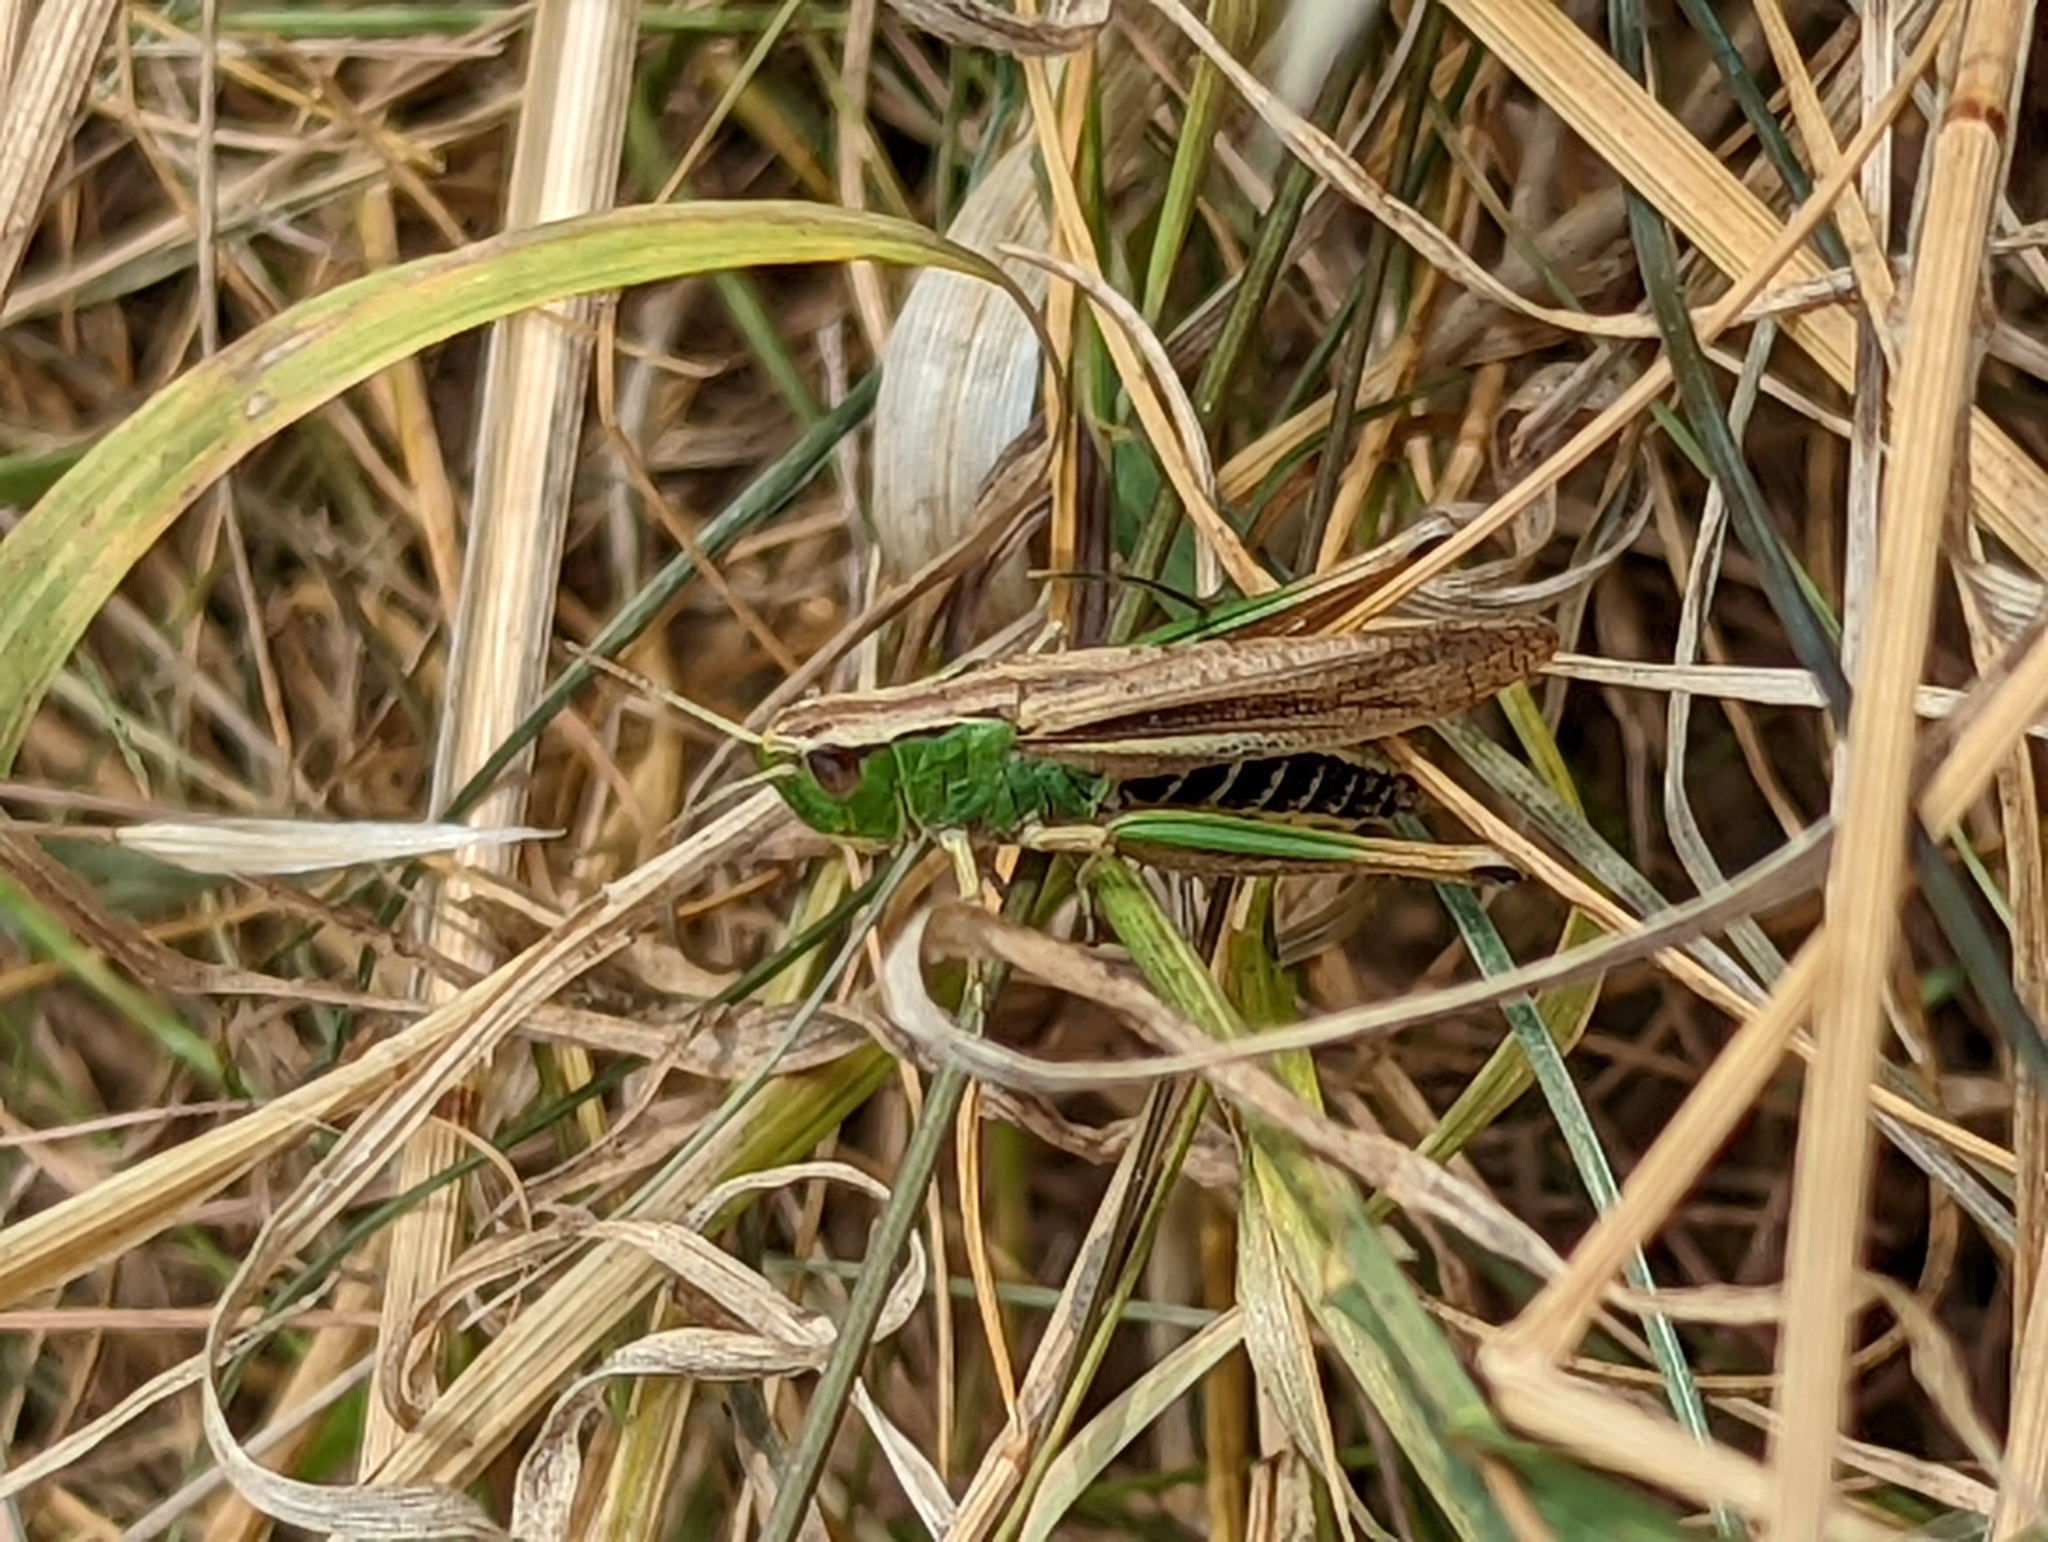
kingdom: Animalia
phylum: Arthropoda
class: Insecta
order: Orthoptera
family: Acrididae
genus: Pseudochorthippus
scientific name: Pseudochorthippus parallelus
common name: Meadow grasshopper
